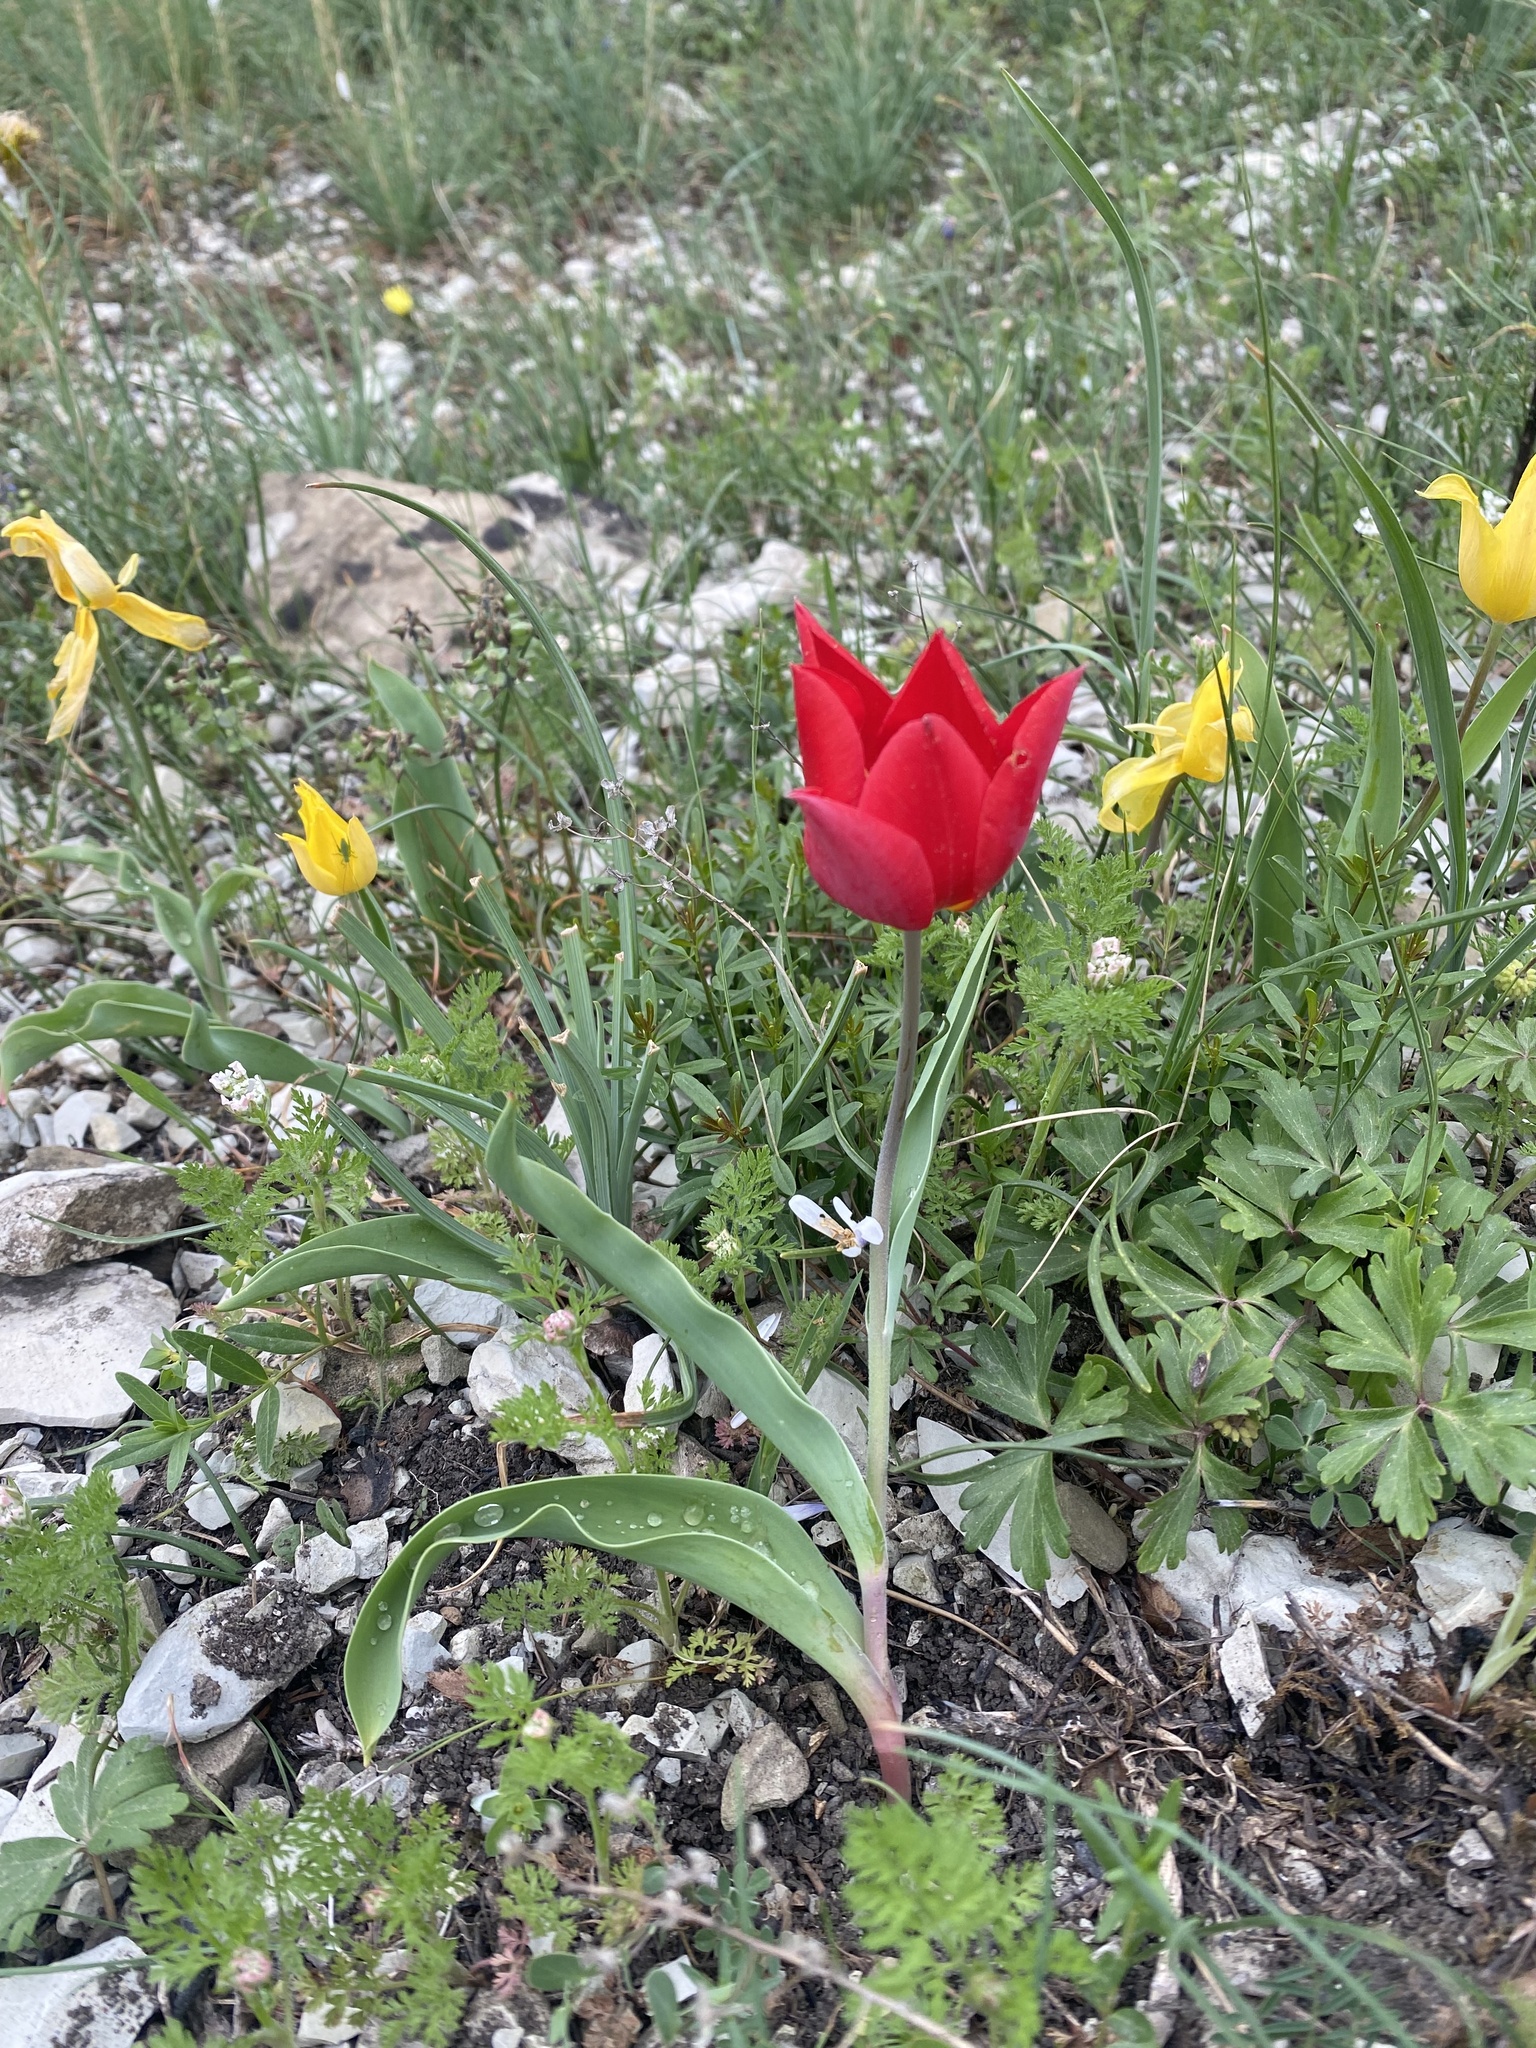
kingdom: Plantae
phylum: Tracheophyta
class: Liliopsida
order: Liliales
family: Liliaceae
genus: Tulipa
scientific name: Tulipa suaveolens
